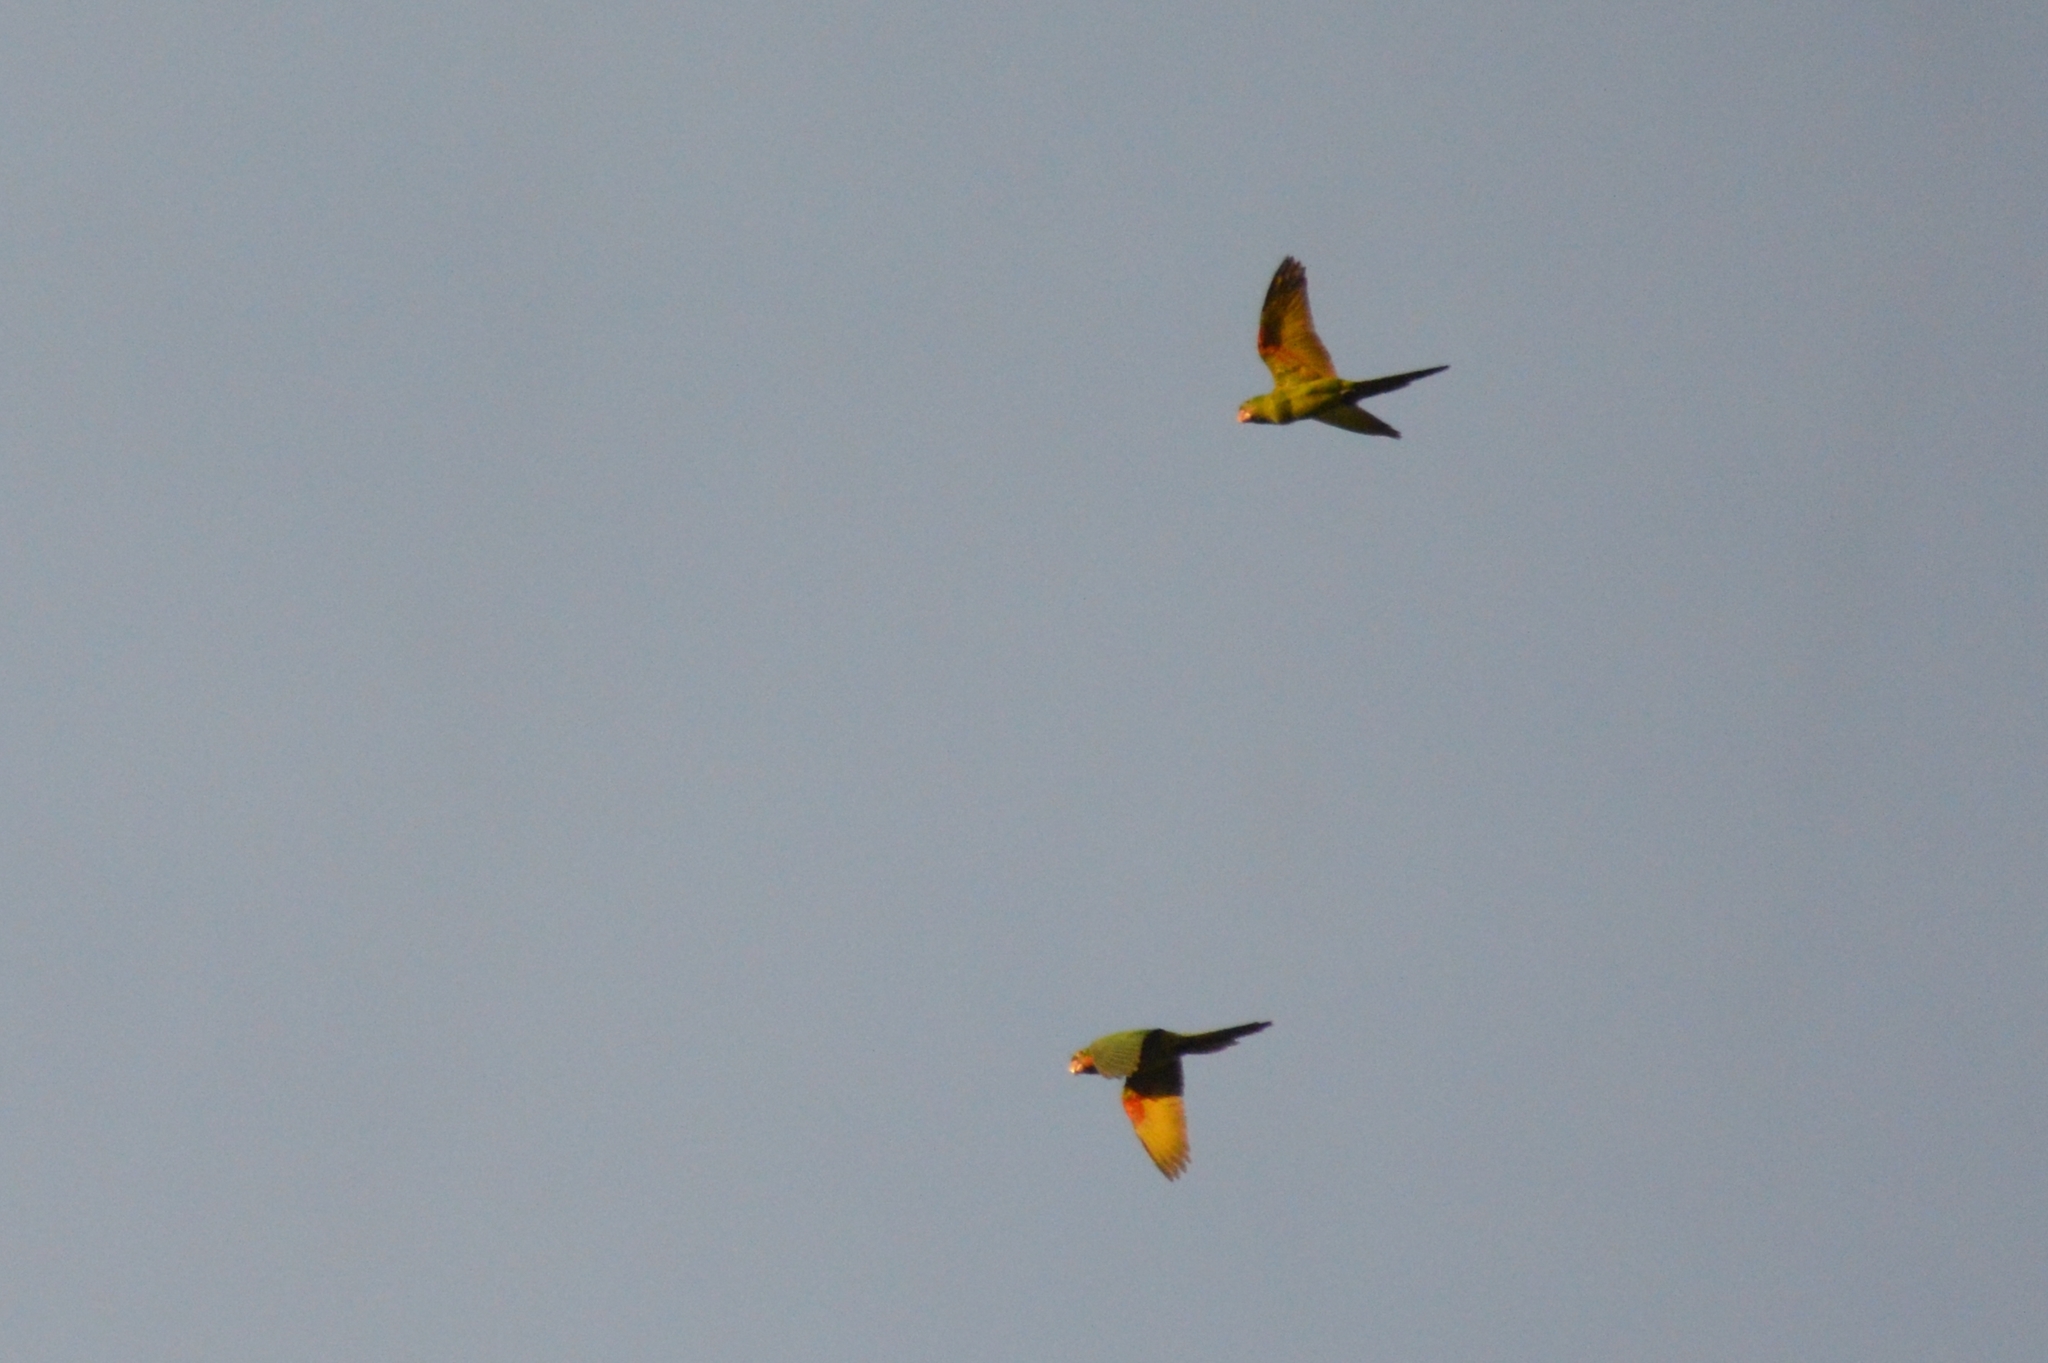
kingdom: Animalia
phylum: Chordata
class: Aves
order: Psittaciformes
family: Psittacidae
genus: Aratinga
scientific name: Aratinga leucophthalma
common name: White-eyed parakeet
